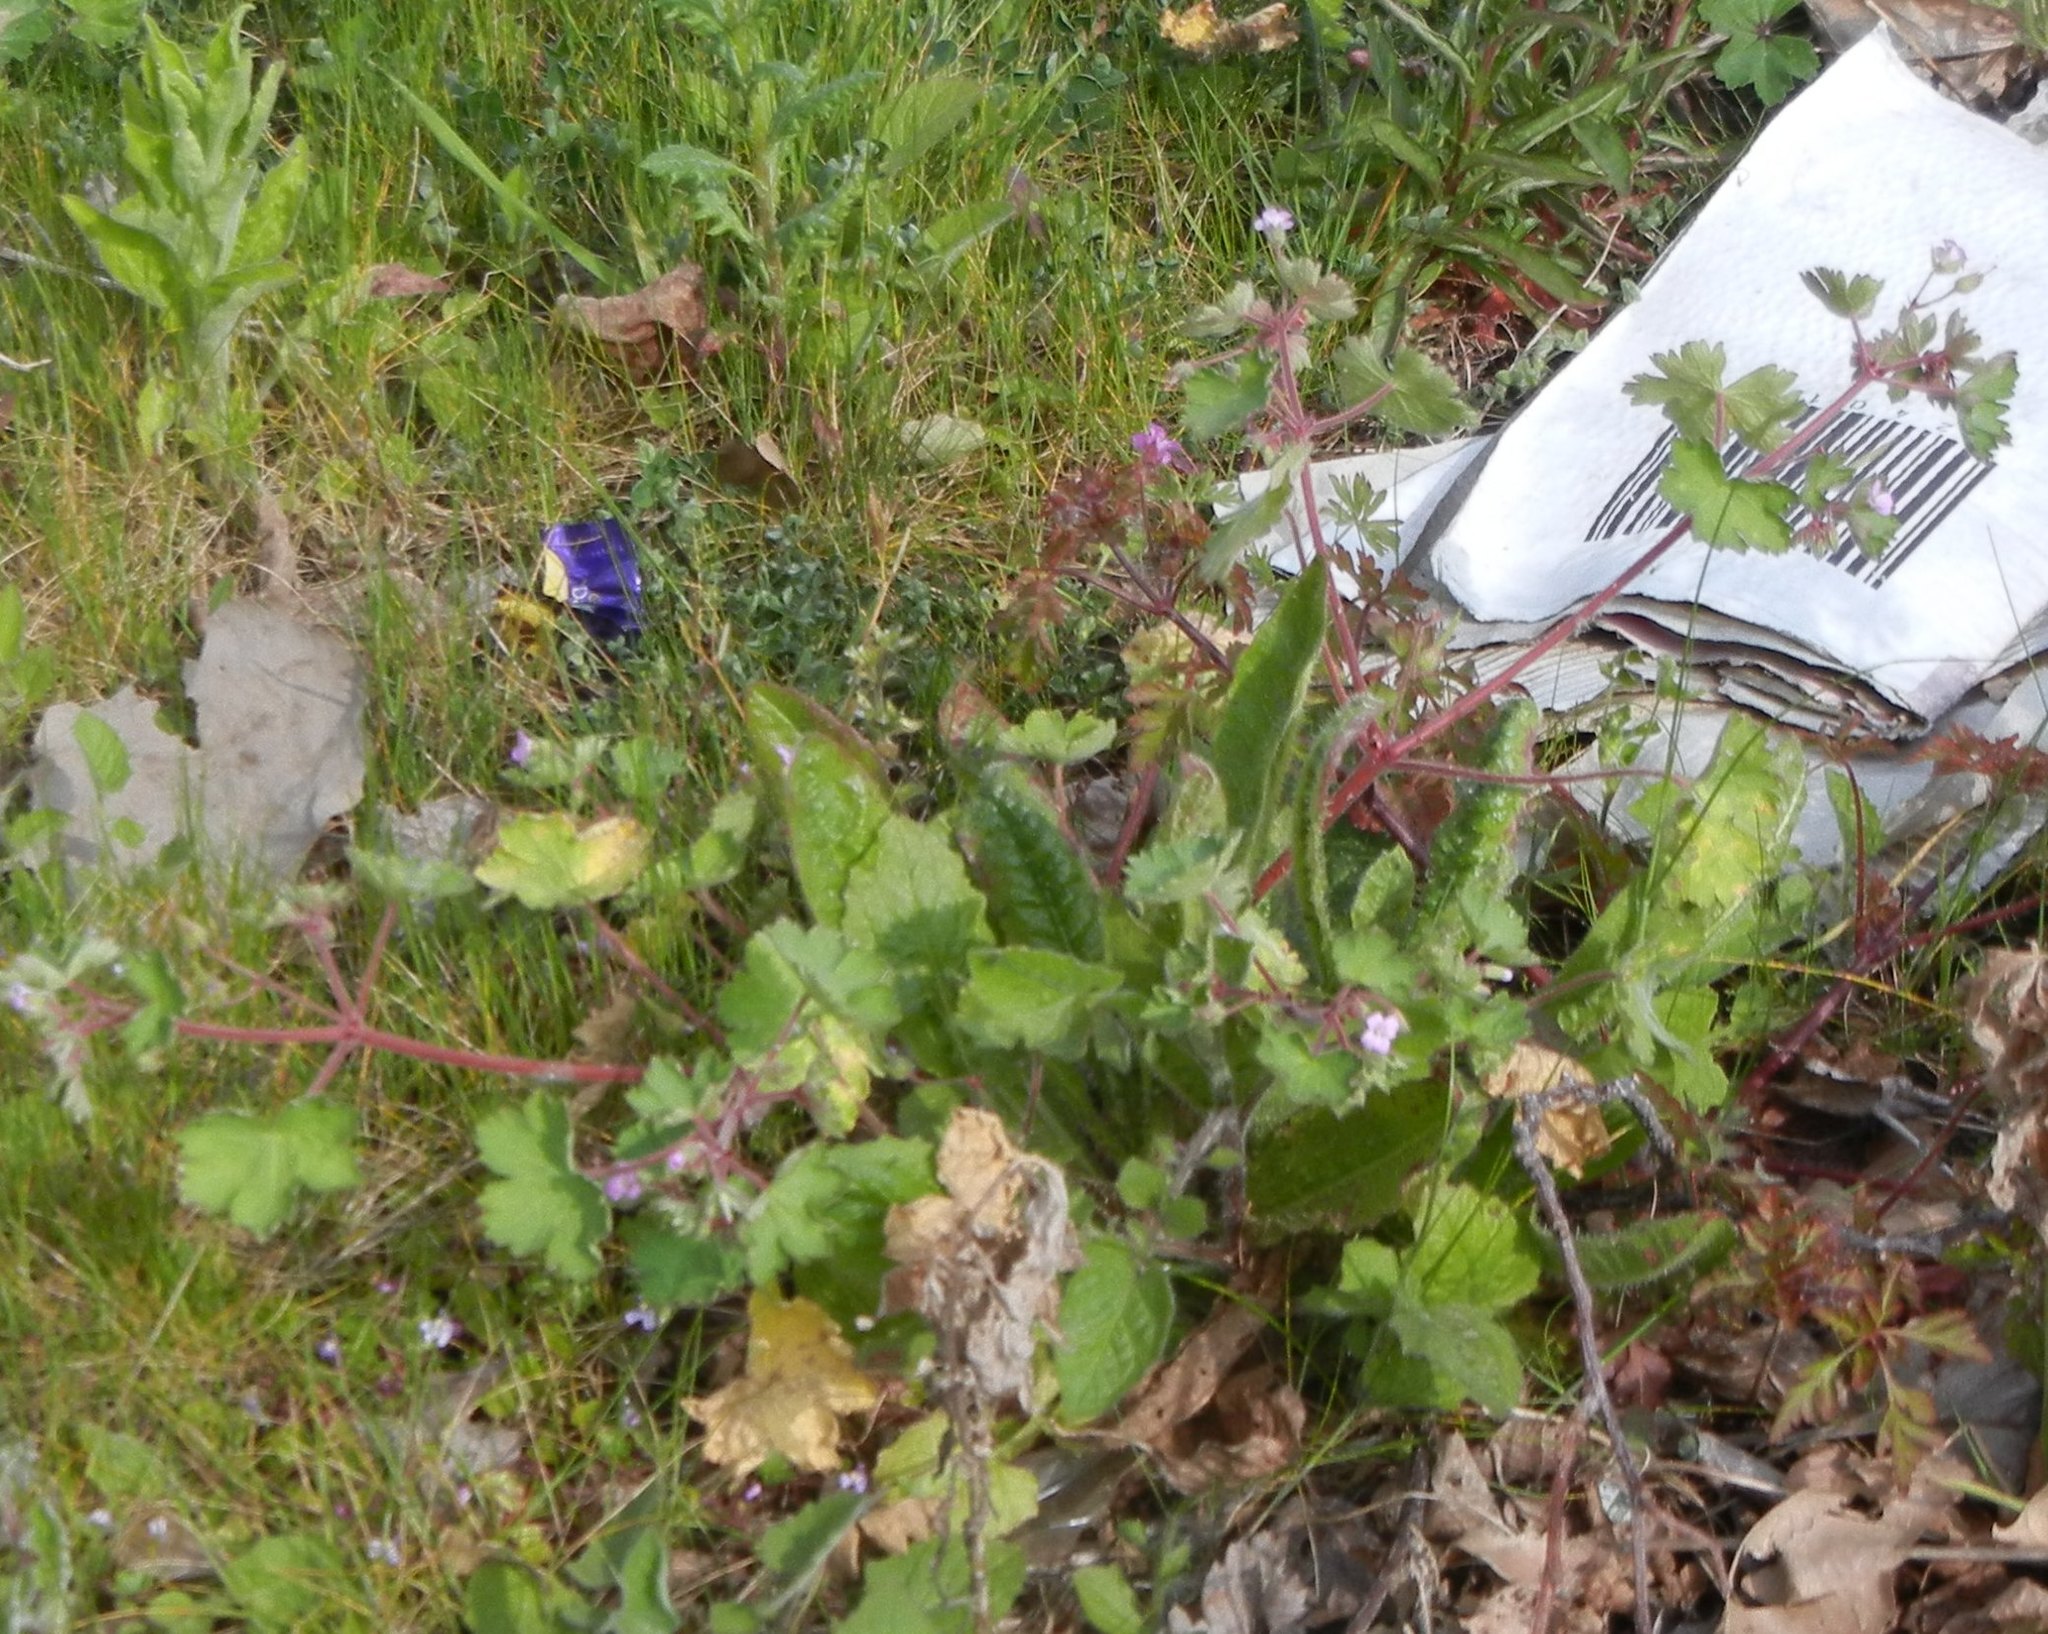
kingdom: Plantae
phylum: Tracheophyta
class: Magnoliopsida
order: Geraniales
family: Geraniaceae
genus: Geranium
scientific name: Geranium macrorrhizum
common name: Rock crane's-bill
